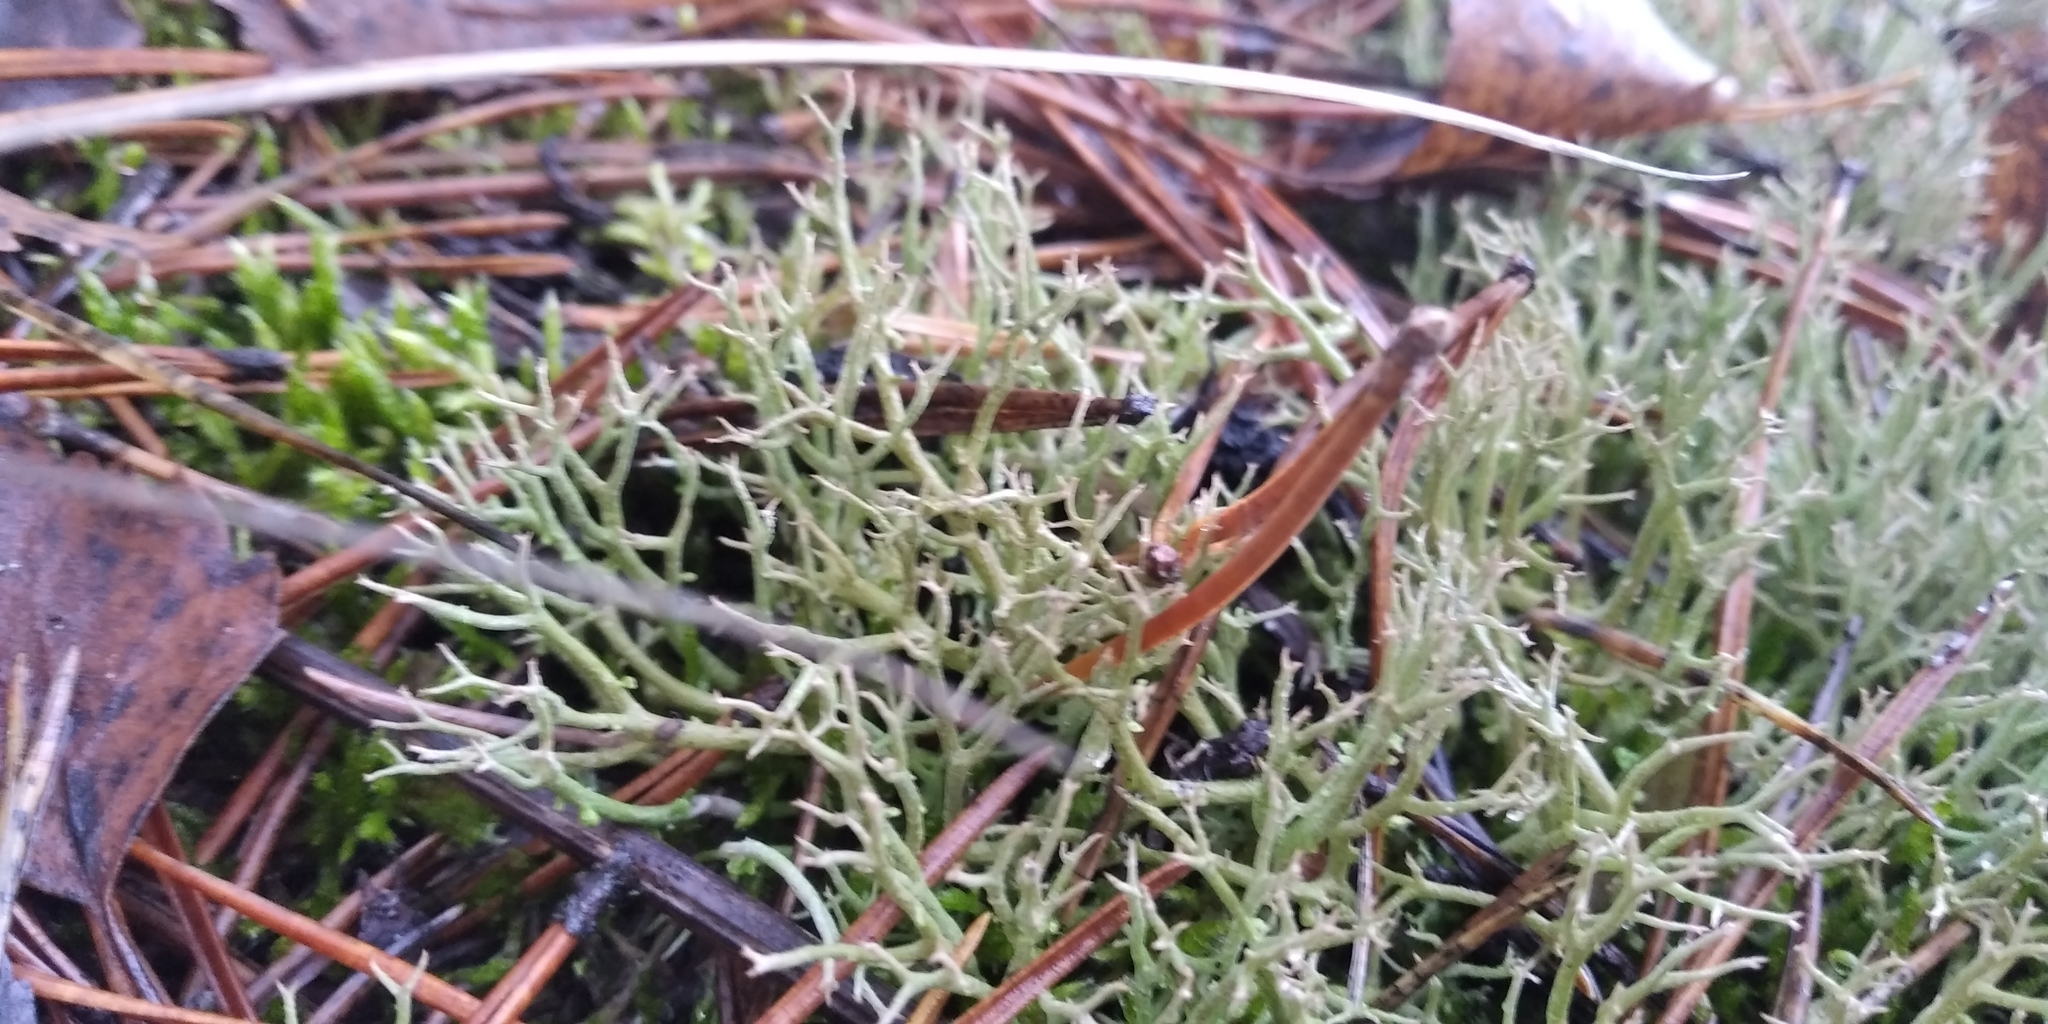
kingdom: Fungi
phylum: Ascomycota
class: Lecanoromycetes
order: Lecanorales
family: Cladoniaceae
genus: Cladonia
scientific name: Cladonia furcata
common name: Many-forked cladonia
